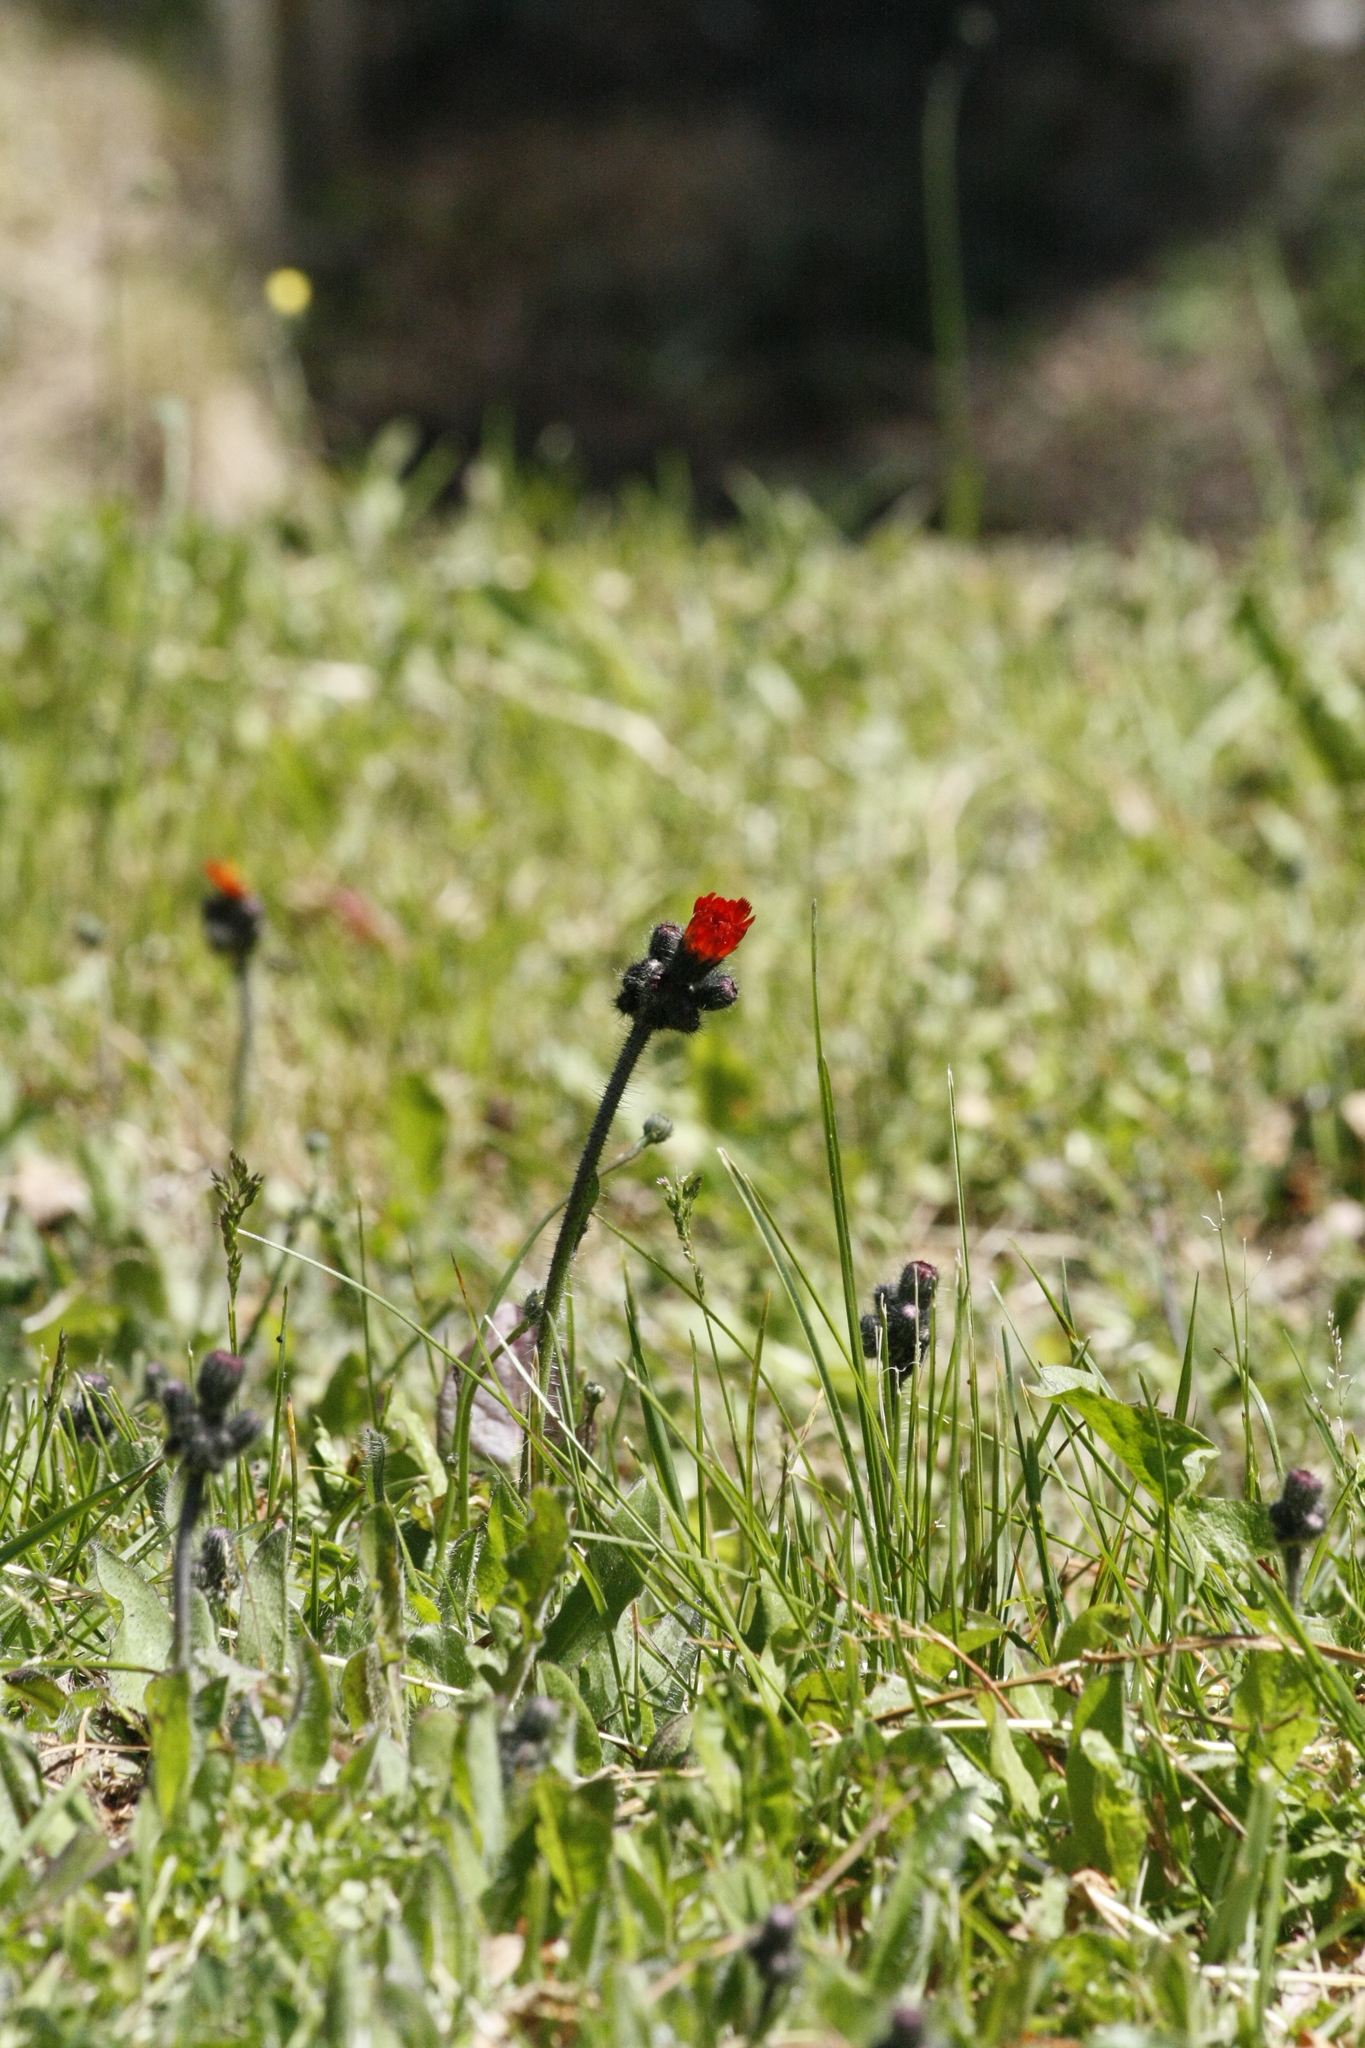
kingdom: Plantae
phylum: Tracheophyta
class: Magnoliopsida
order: Asterales
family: Asteraceae
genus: Pilosella
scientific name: Pilosella aurantiaca
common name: Fox-and-cubs
